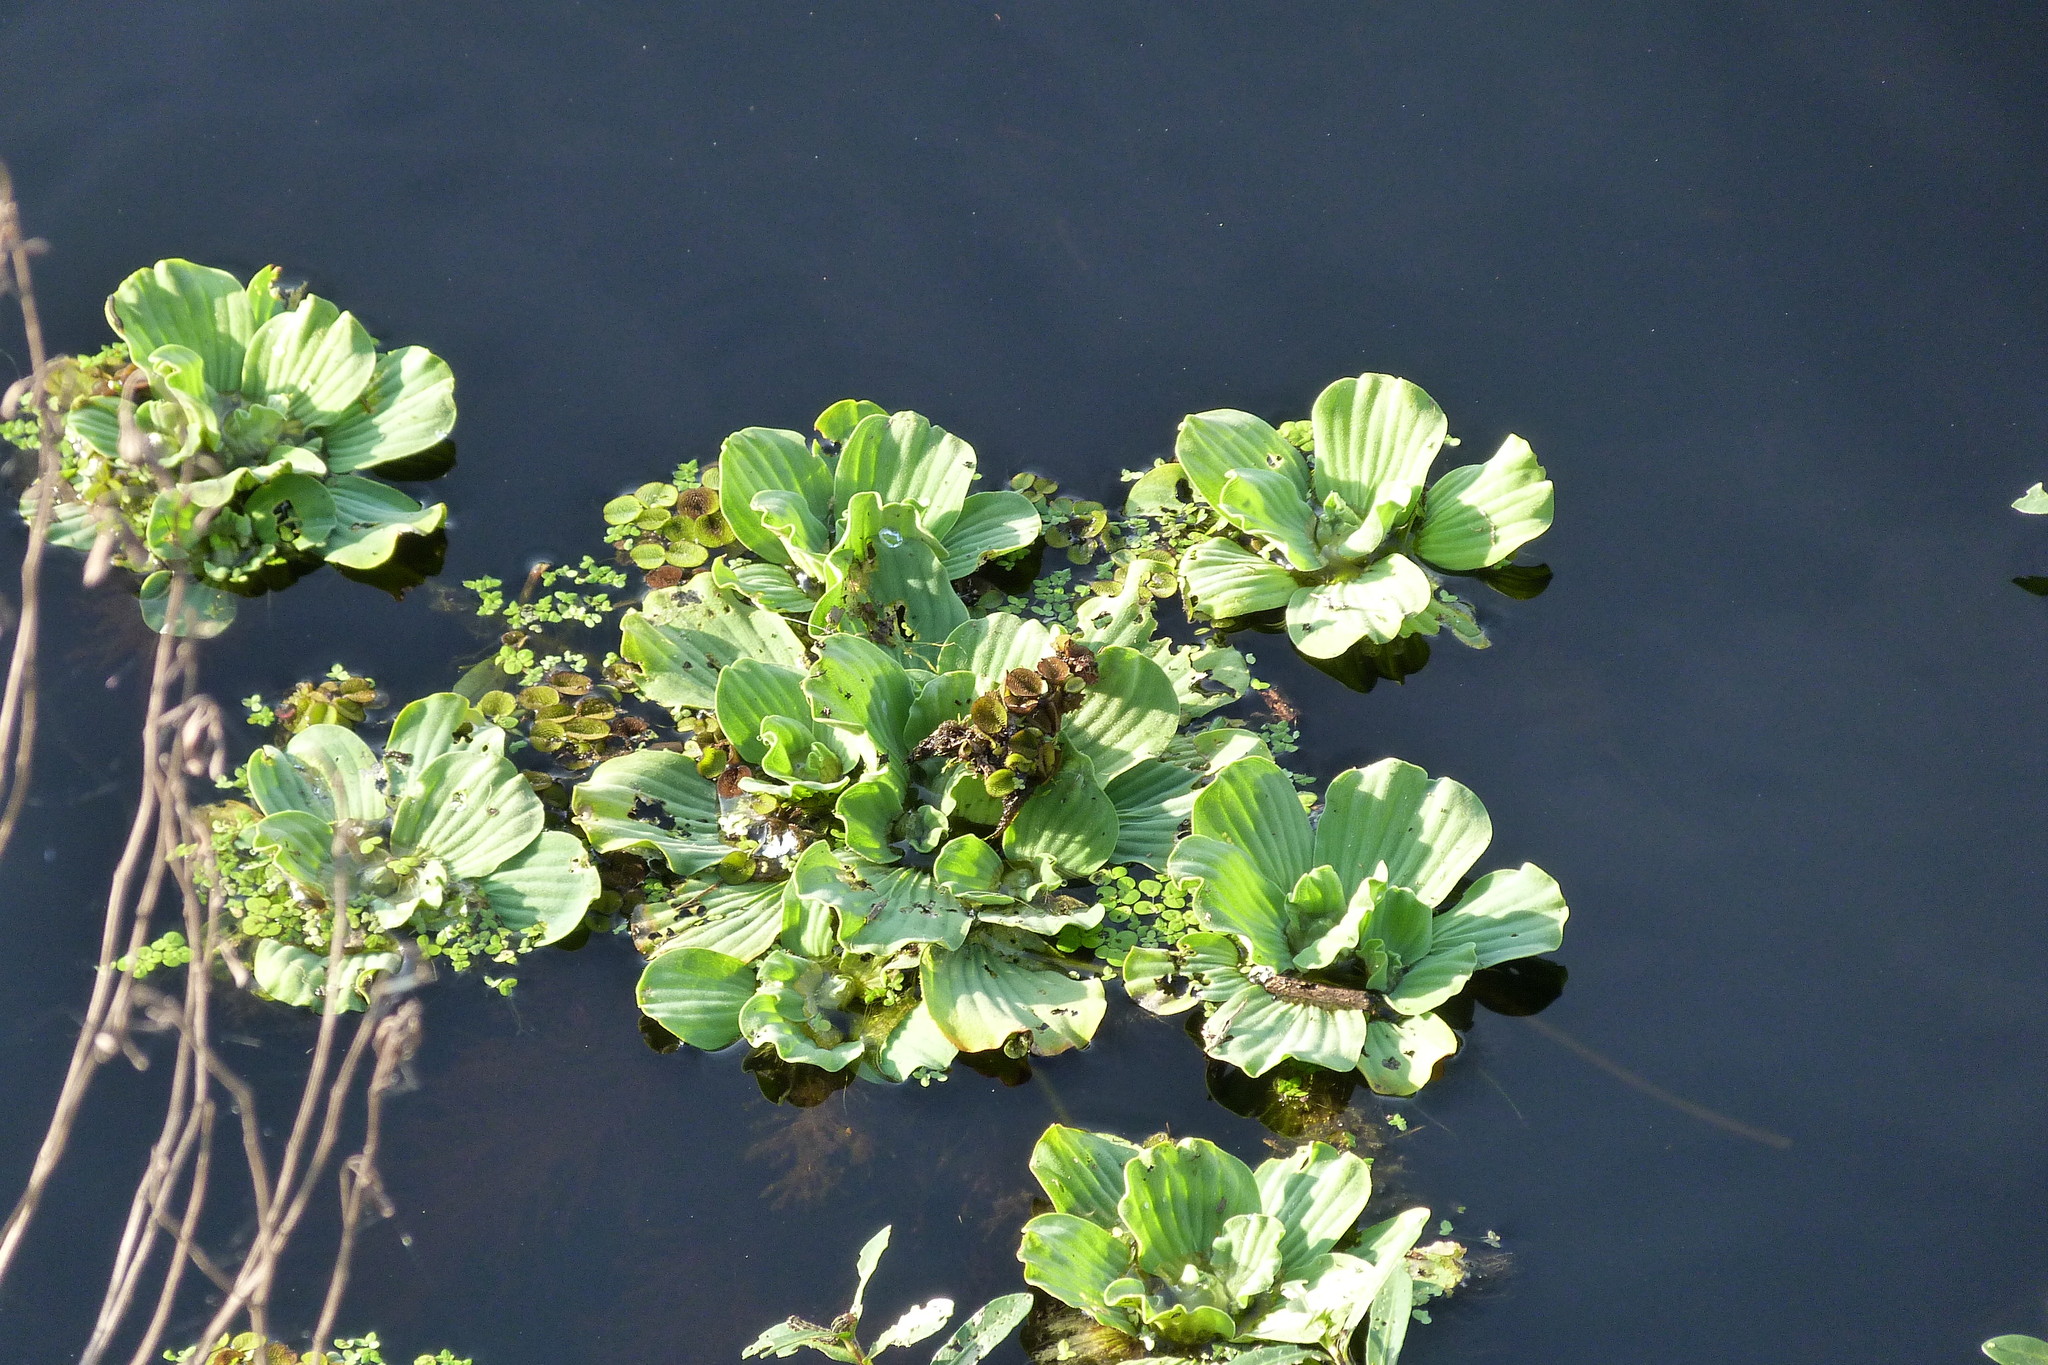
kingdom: Plantae
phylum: Tracheophyta
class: Liliopsida
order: Alismatales
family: Araceae
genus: Pistia
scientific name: Pistia stratiotes
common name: Water lettuce
